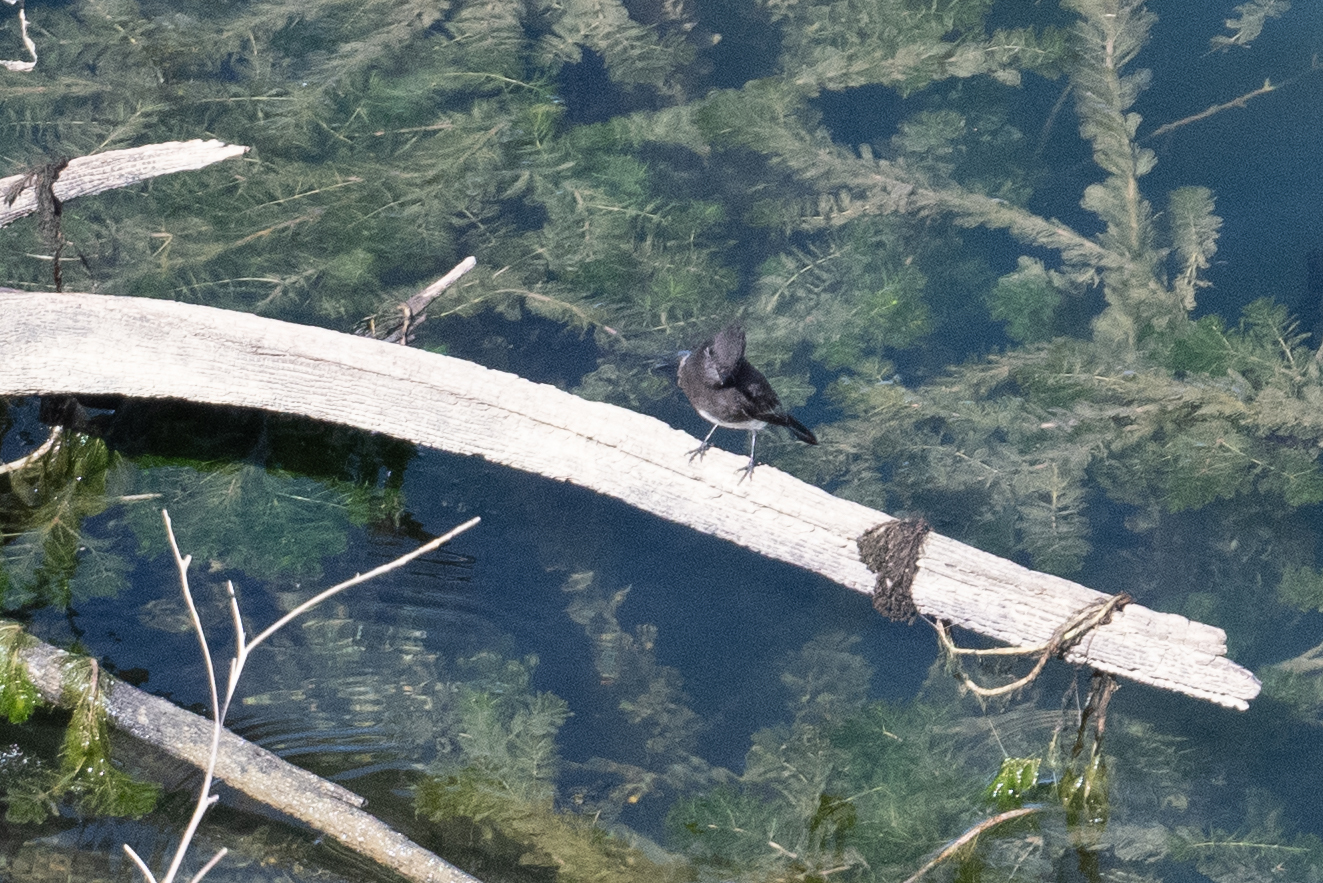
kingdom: Animalia
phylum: Chordata
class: Aves
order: Passeriformes
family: Tyrannidae
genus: Sayornis
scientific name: Sayornis nigricans
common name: Black phoebe
